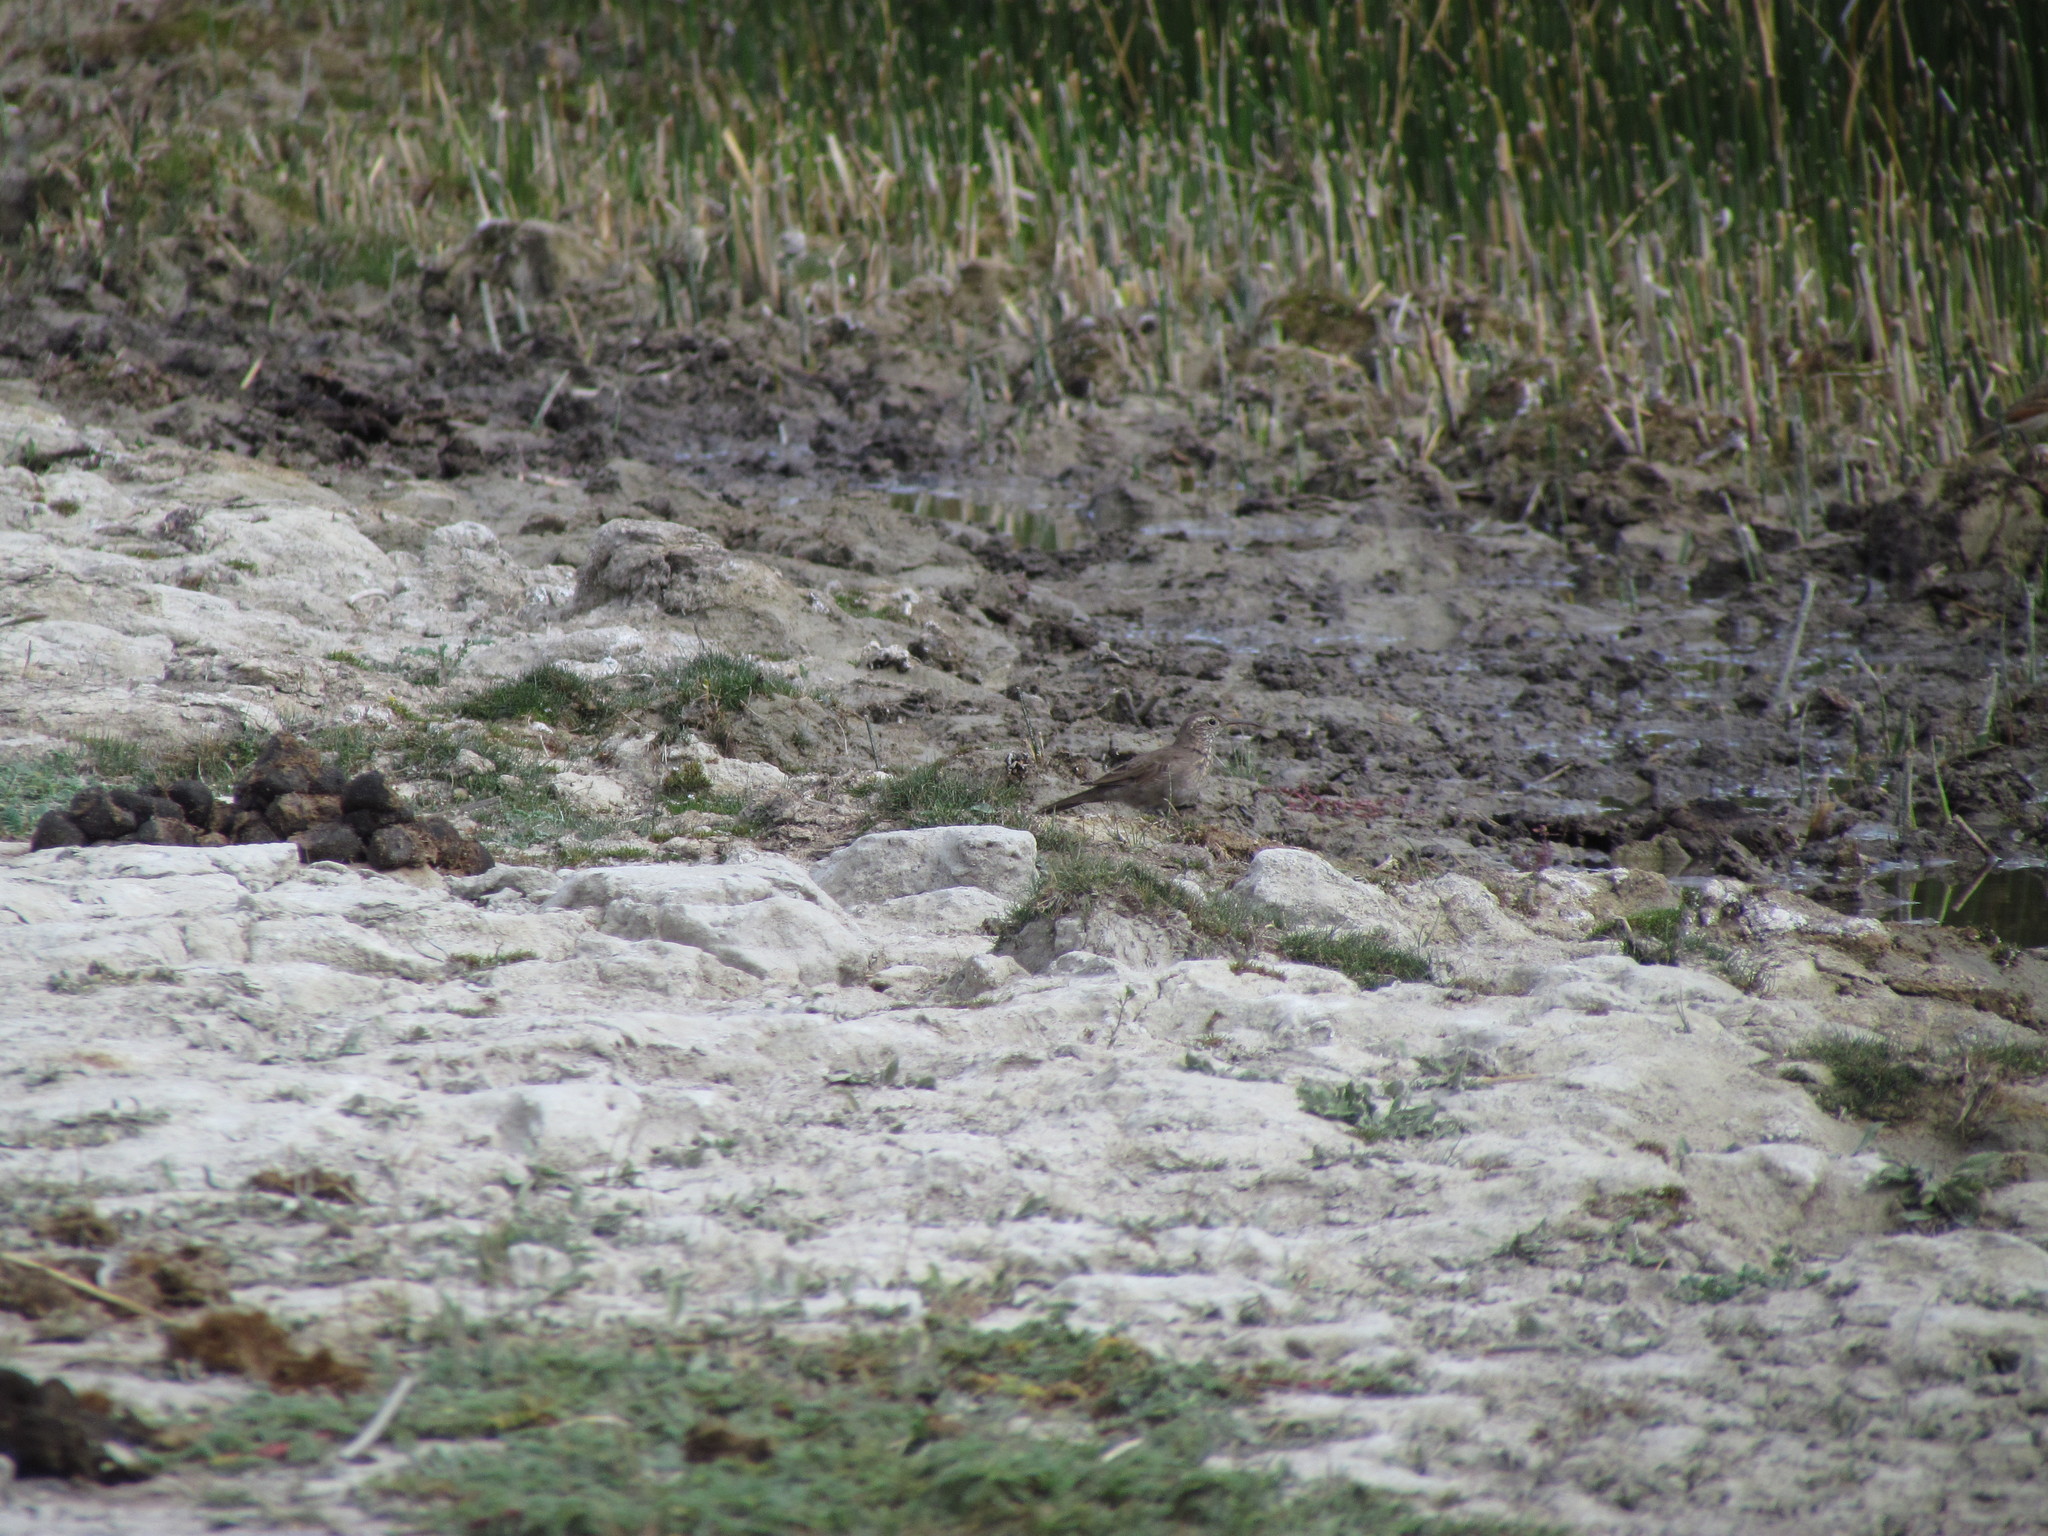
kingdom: Animalia
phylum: Chordata
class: Aves
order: Passeriformes
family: Furnariidae
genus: Upucerthia
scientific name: Upucerthia dumetaria
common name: Scale-throated earthcreeper
